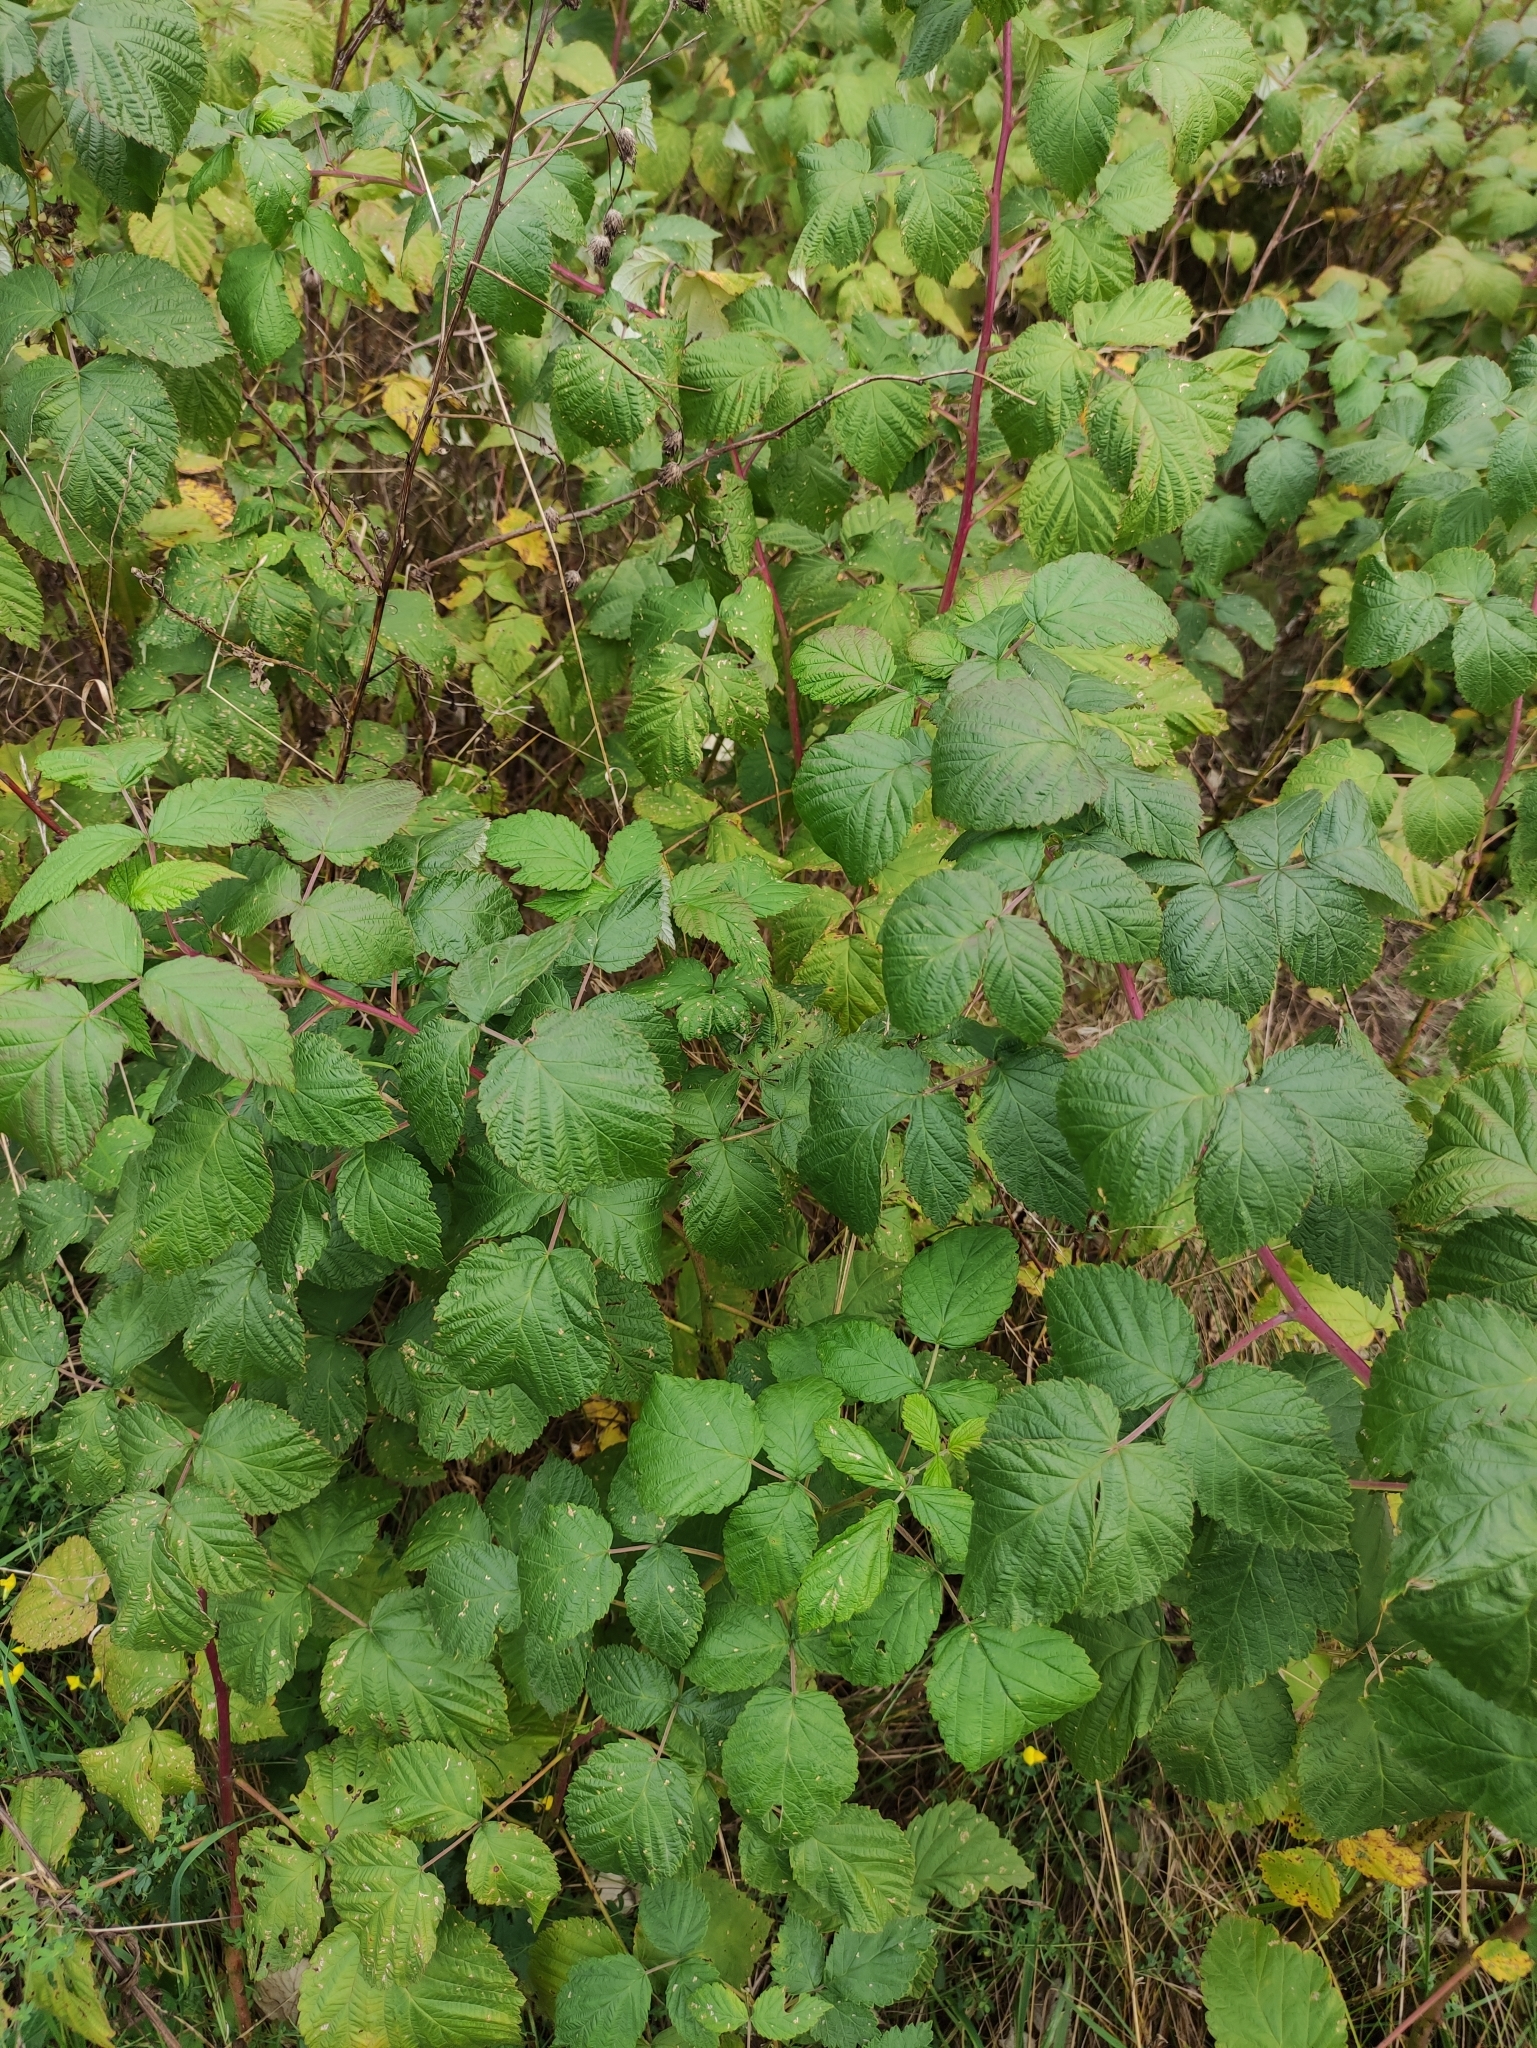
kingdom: Plantae
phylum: Tracheophyta
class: Magnoliopsida
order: Rosales
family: Rosaceae
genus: Rubus
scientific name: Rubus idaeus
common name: Raspberry
